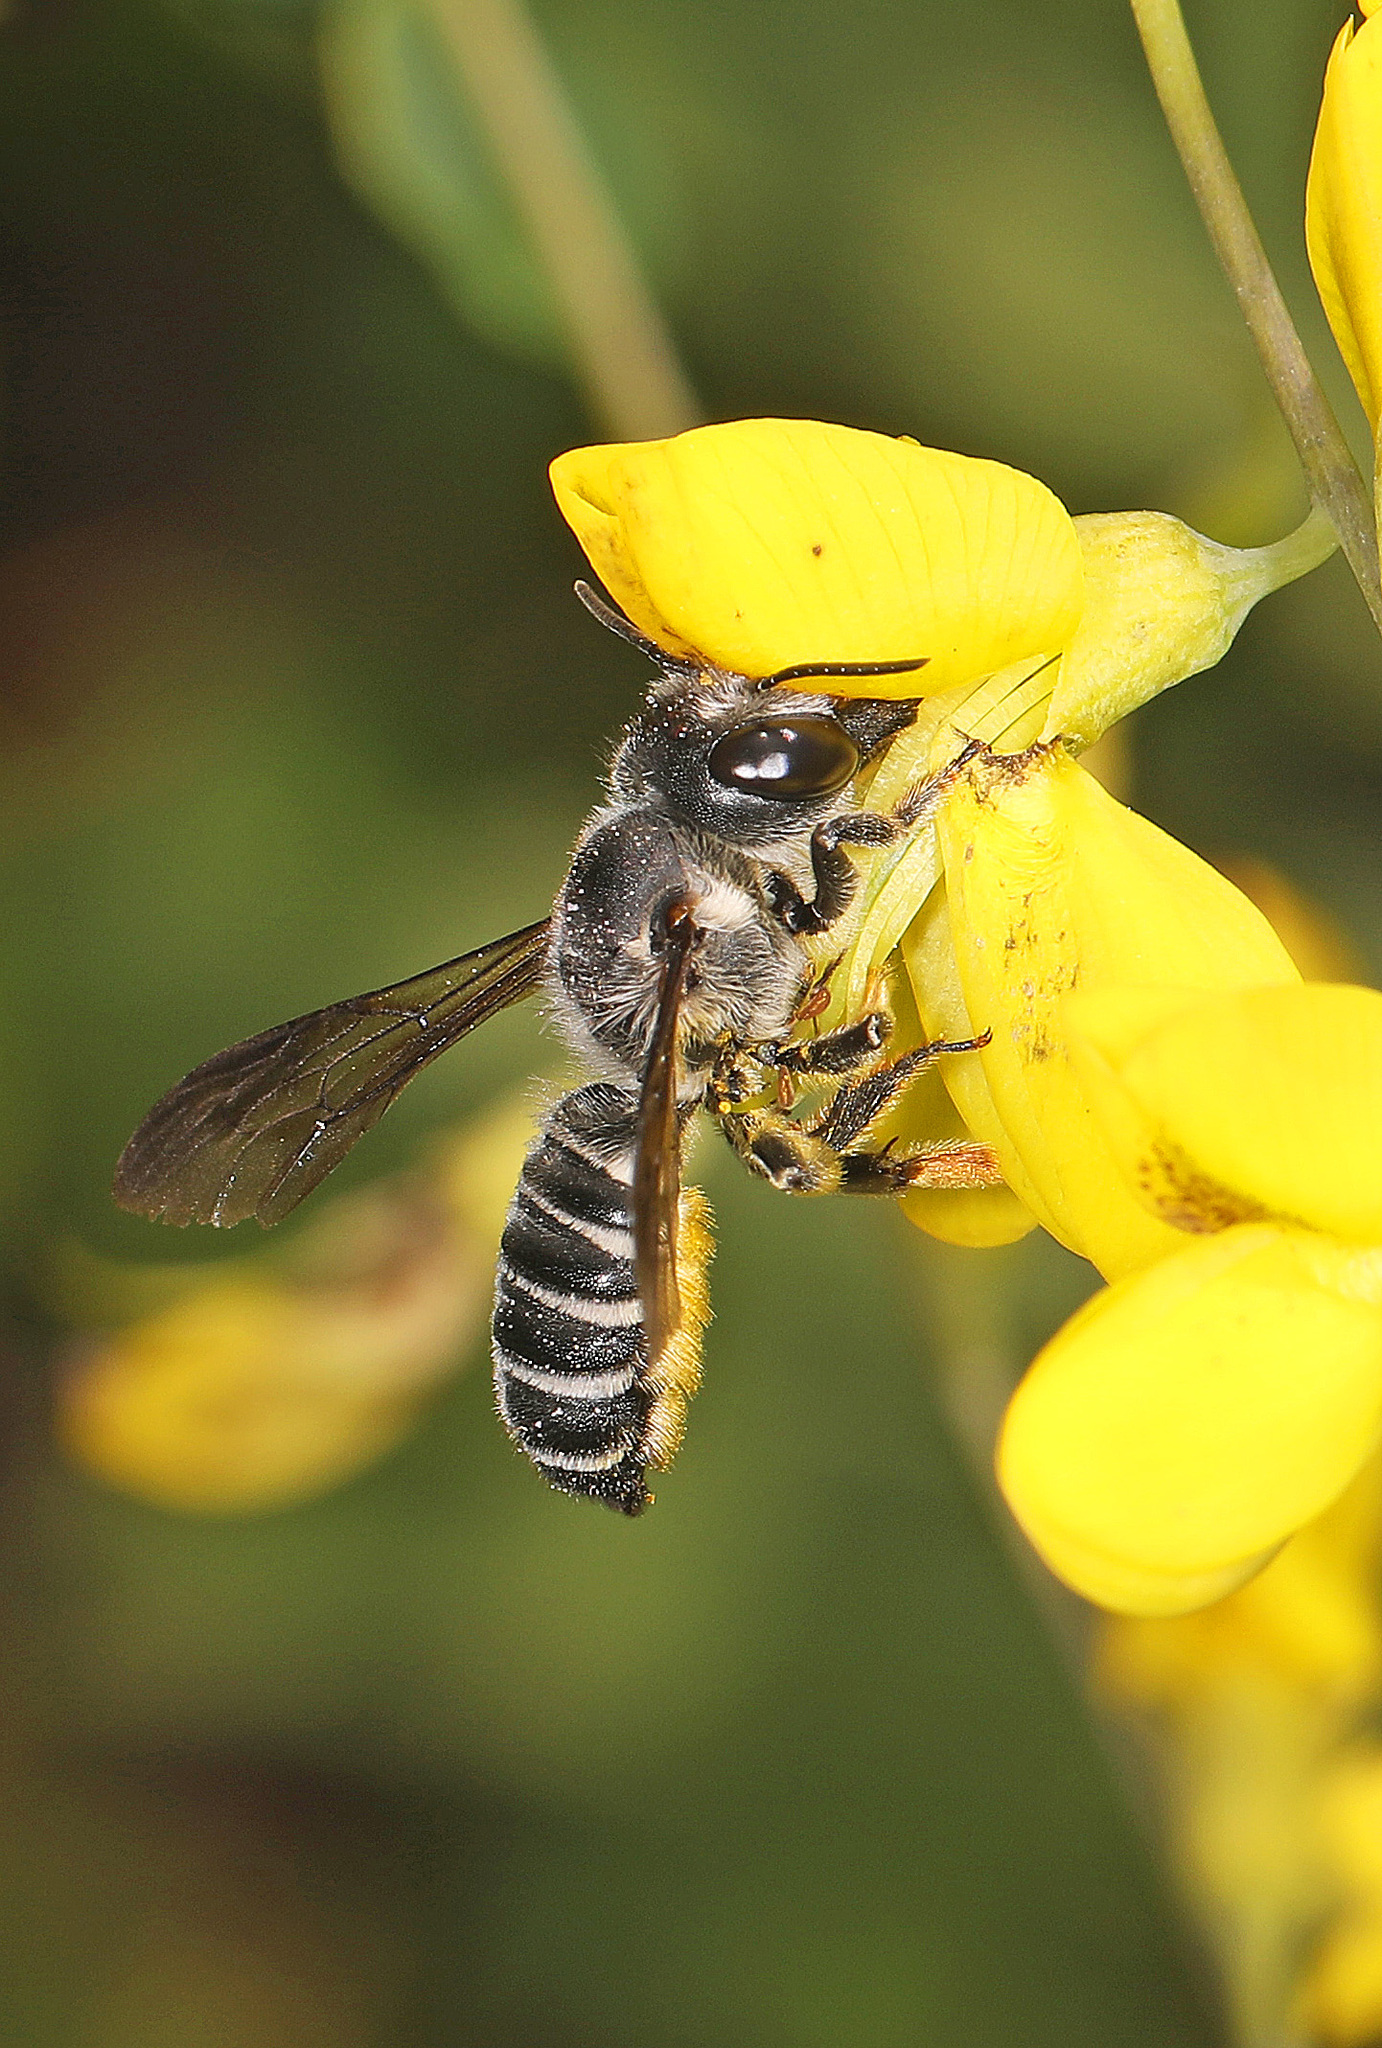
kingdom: Animalia
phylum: Arthropoda
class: Insecta
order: Hymenoptera
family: Megachilidae
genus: Megachile
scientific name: Megachile frugalis
